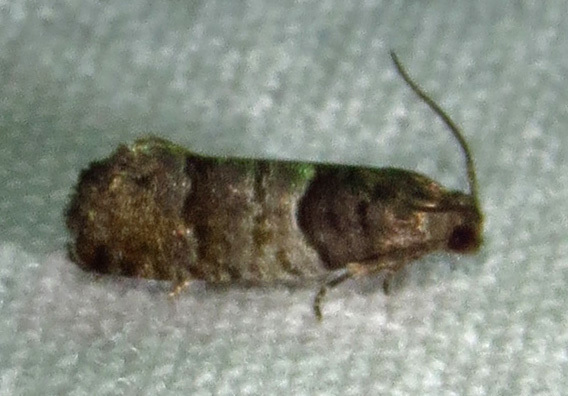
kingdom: Animalia
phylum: Arthropoda
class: Insecta
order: Lepidoptera
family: Tortricidae
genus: Larisa
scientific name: Larisa subsolana
